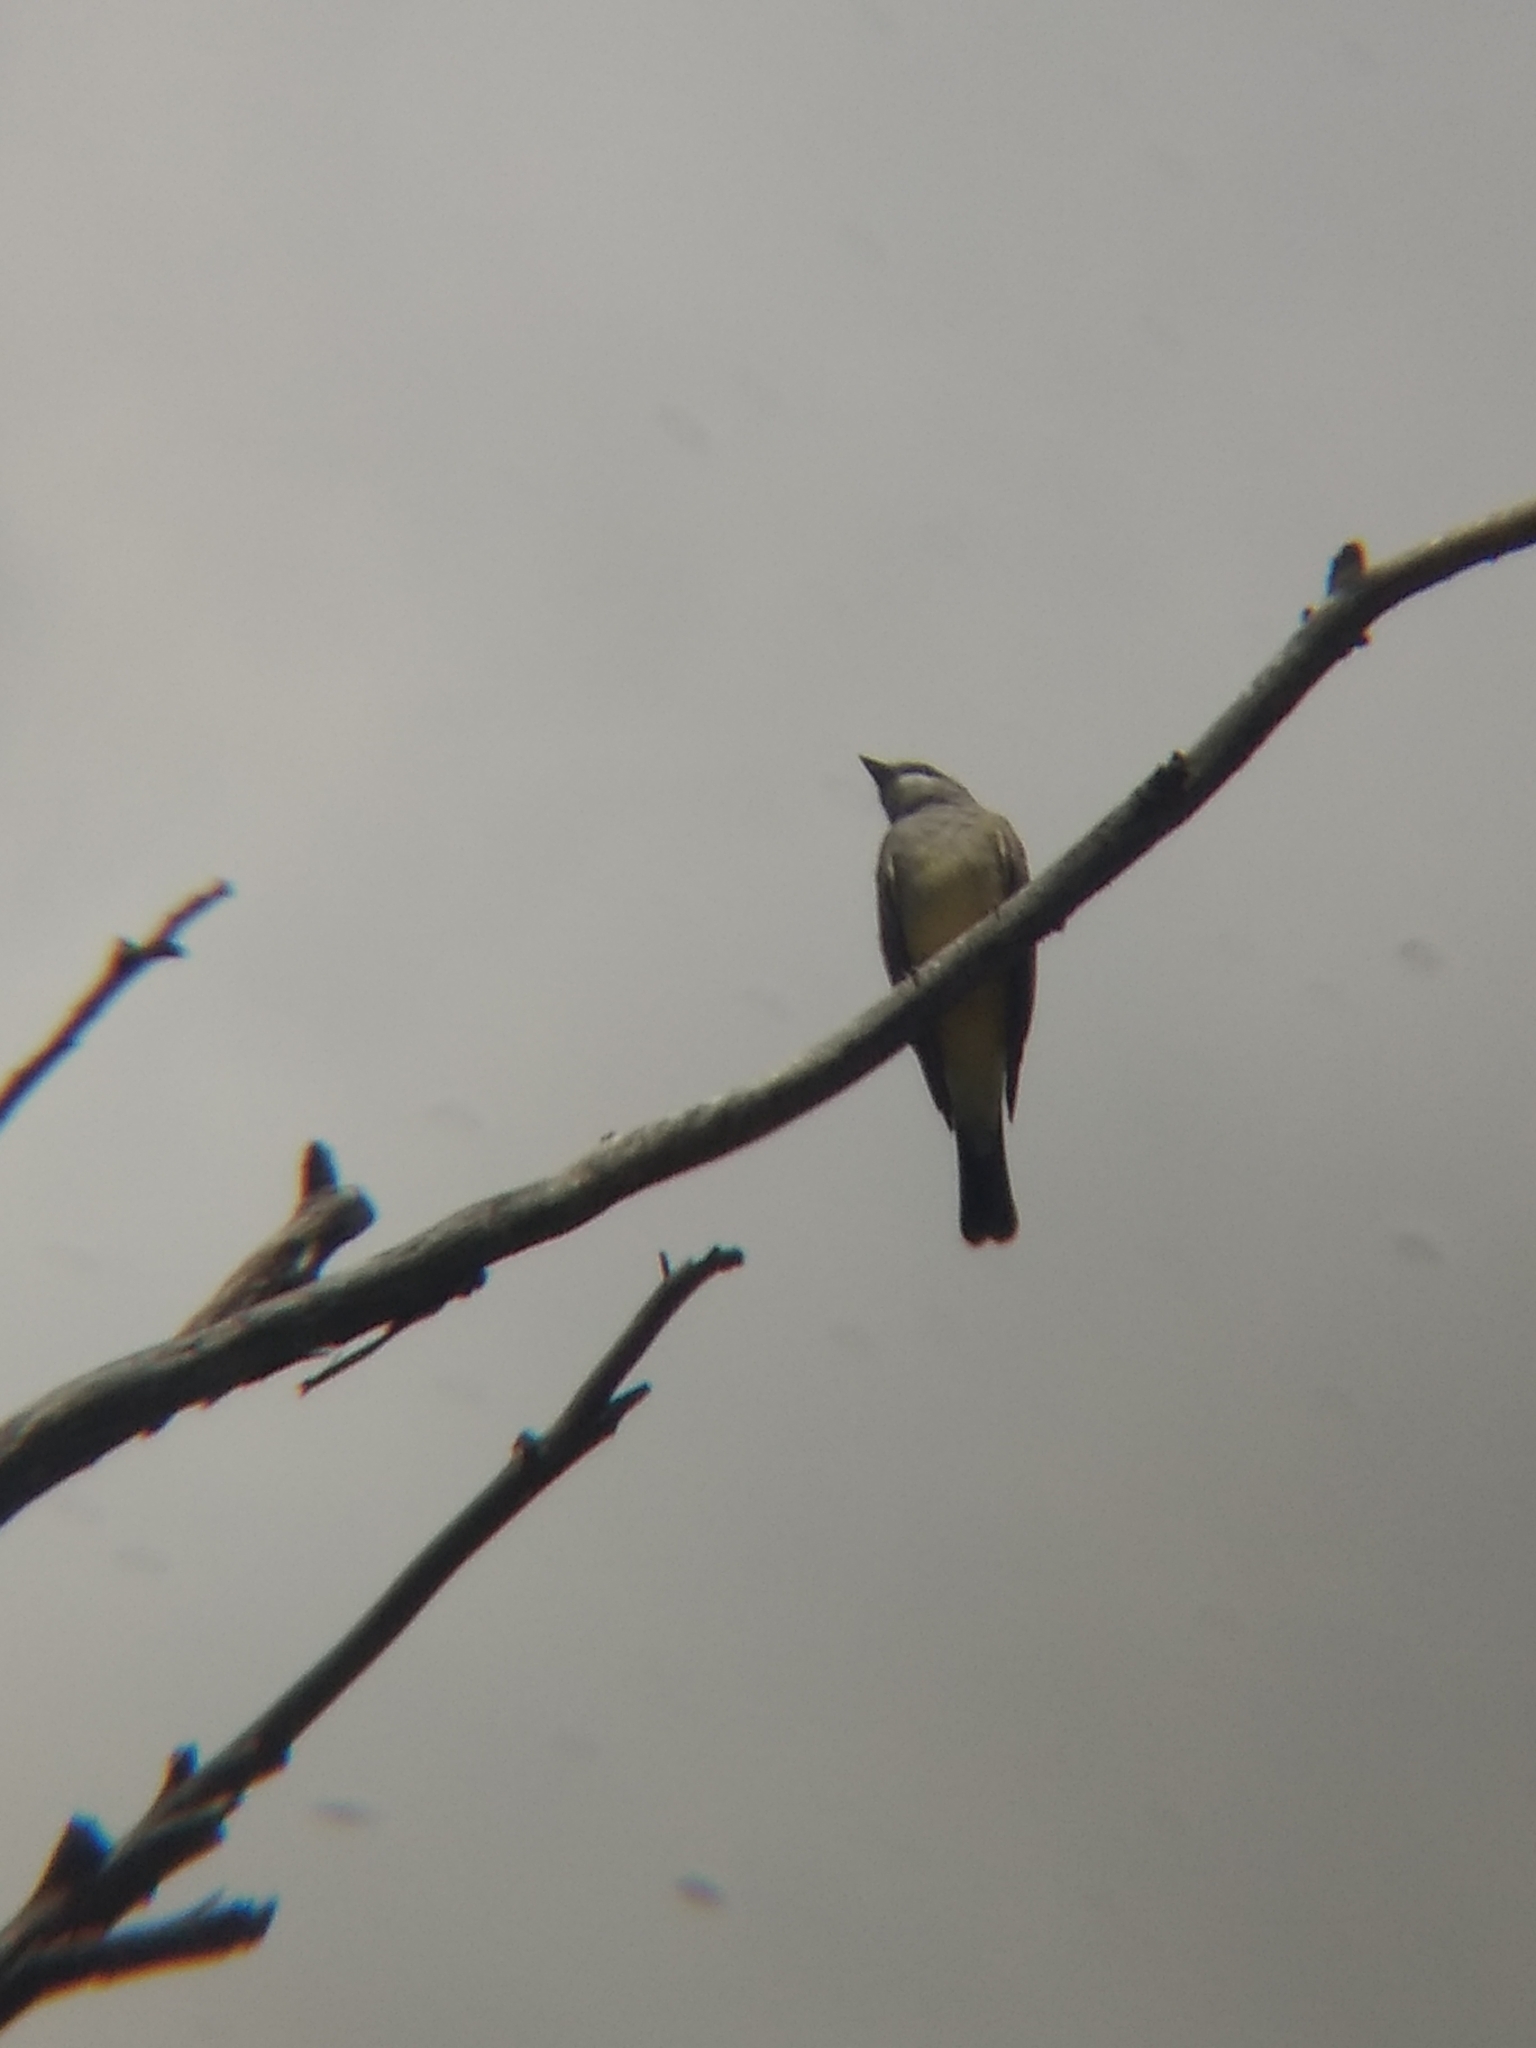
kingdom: Animalia
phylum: Chordata
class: Aves
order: Passeriformes
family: Tyrannidae
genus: Tyrannus
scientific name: Tyrannus vociferans
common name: Cassin's kingbird
